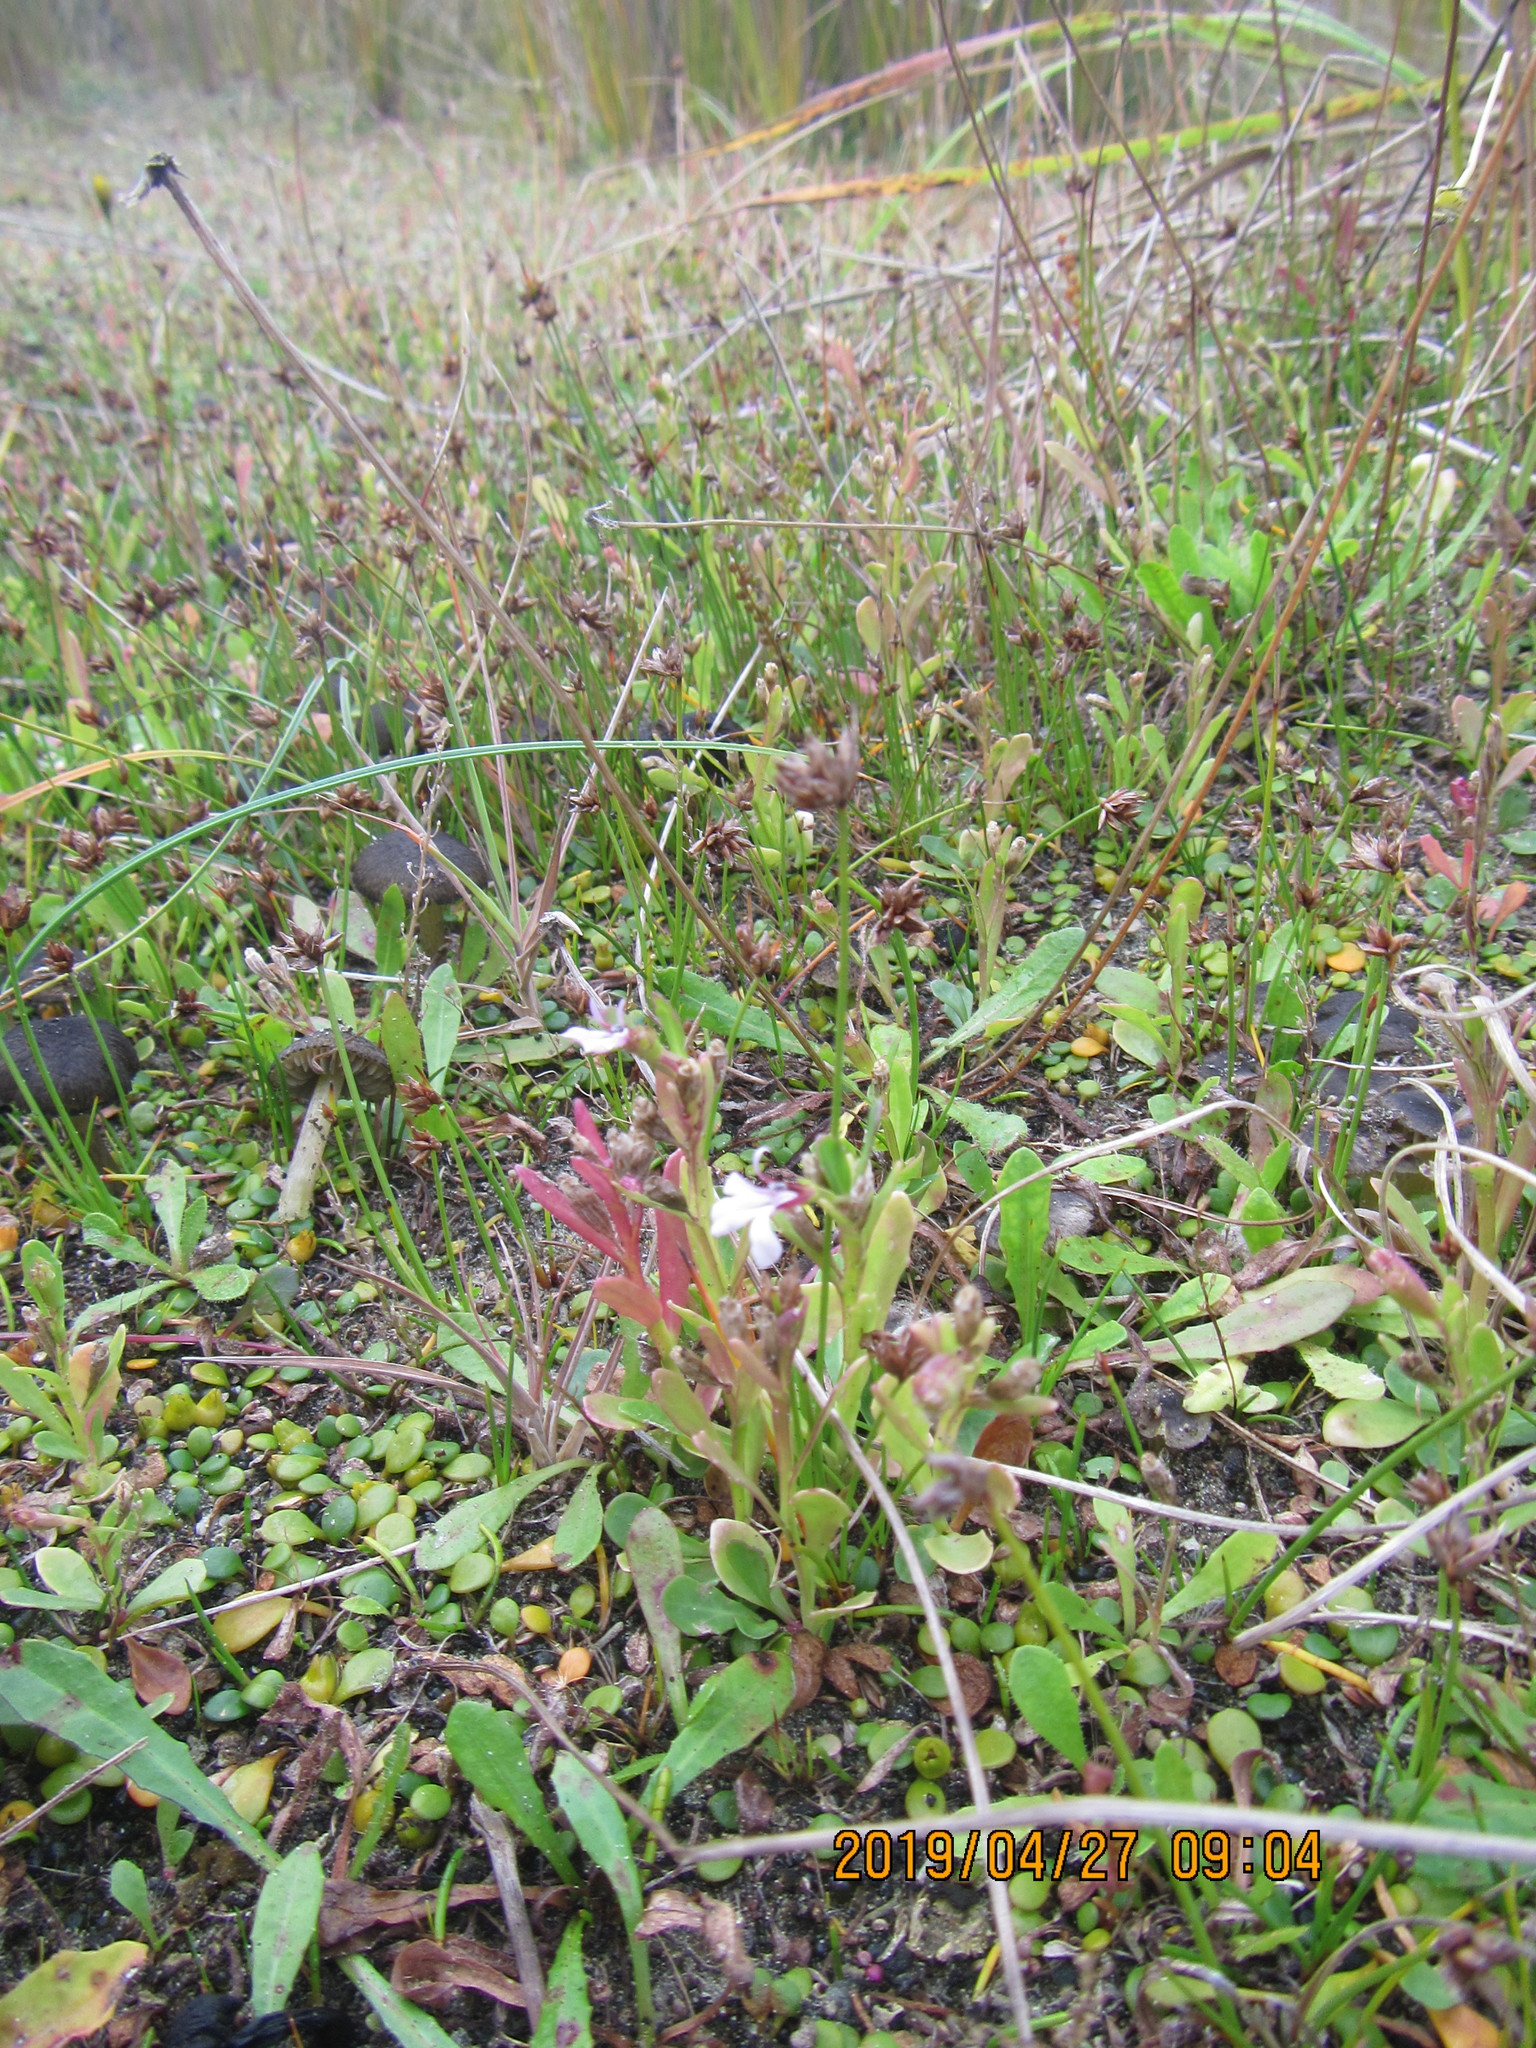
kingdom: Plantae
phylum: Tracheophyta
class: Magnoliopsida
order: Asterales
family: Campanulaceae
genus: Lobelia
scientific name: Lobelia anceps
